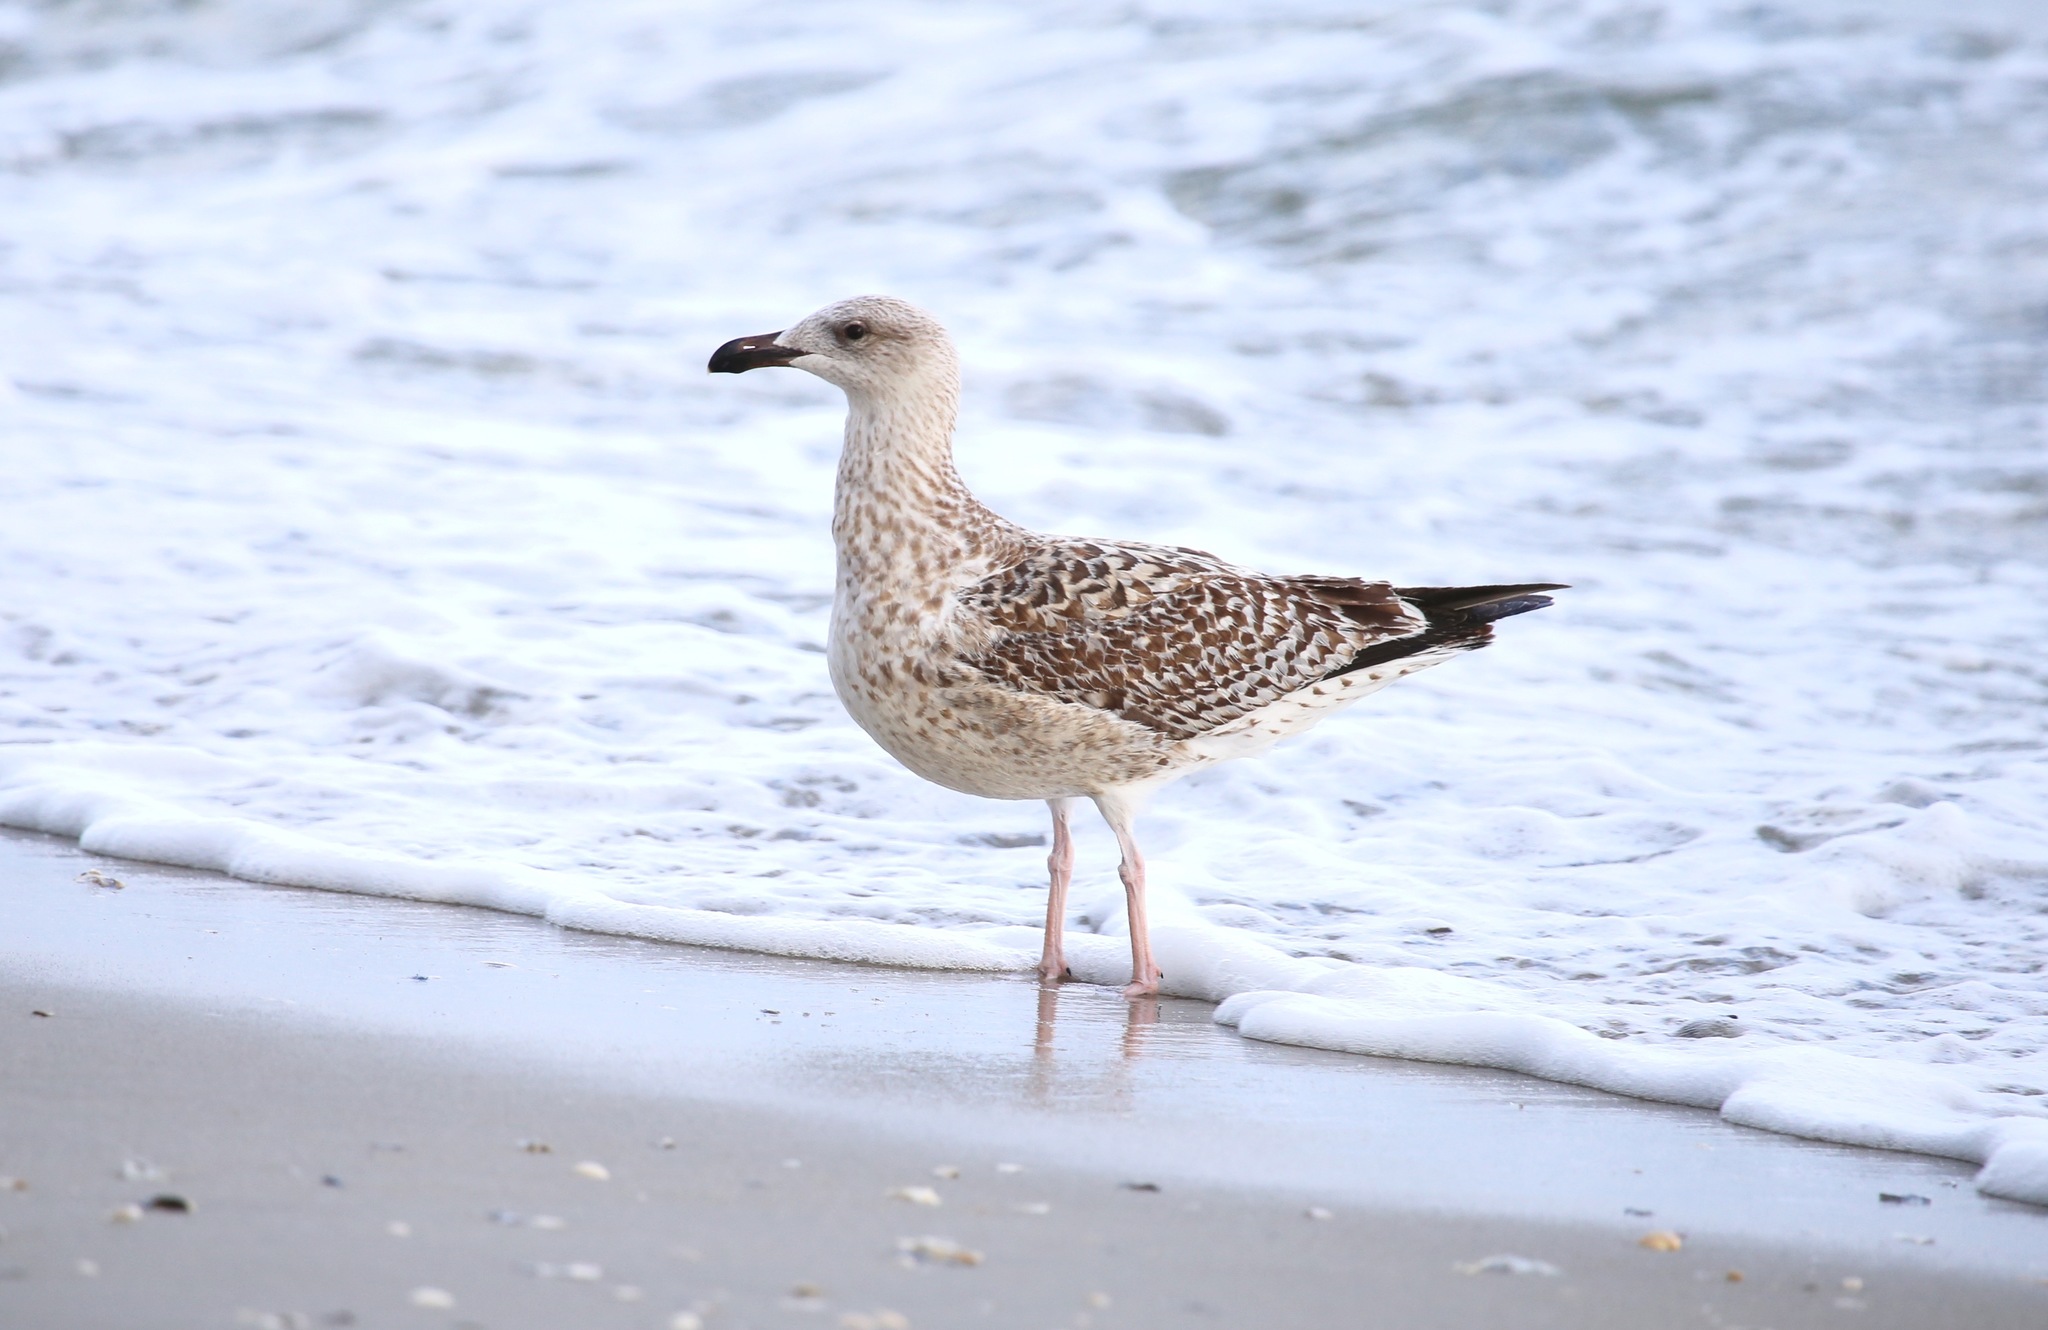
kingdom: Animalia
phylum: Chordata
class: Aves
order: Charadriiformes
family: Laridae
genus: Larus
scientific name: Larus marinus
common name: Great black-backed gull
